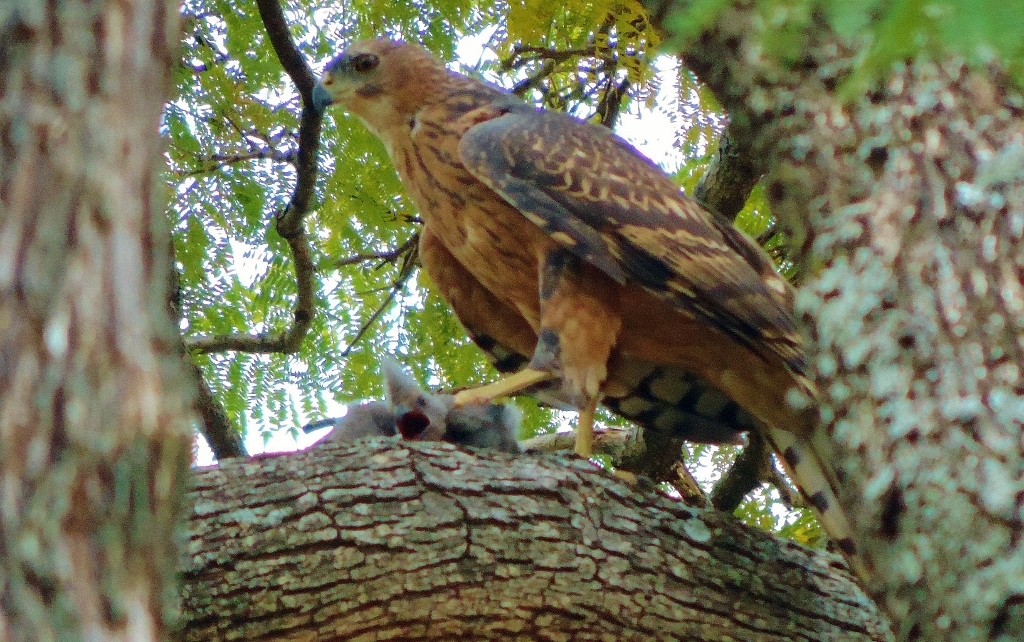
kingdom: Animalia
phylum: Chordata
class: Aves
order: Musophagiformes
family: Musophagidae
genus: Corythaixoides
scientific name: Corythaixoides concolor
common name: Grey go-away-bird
